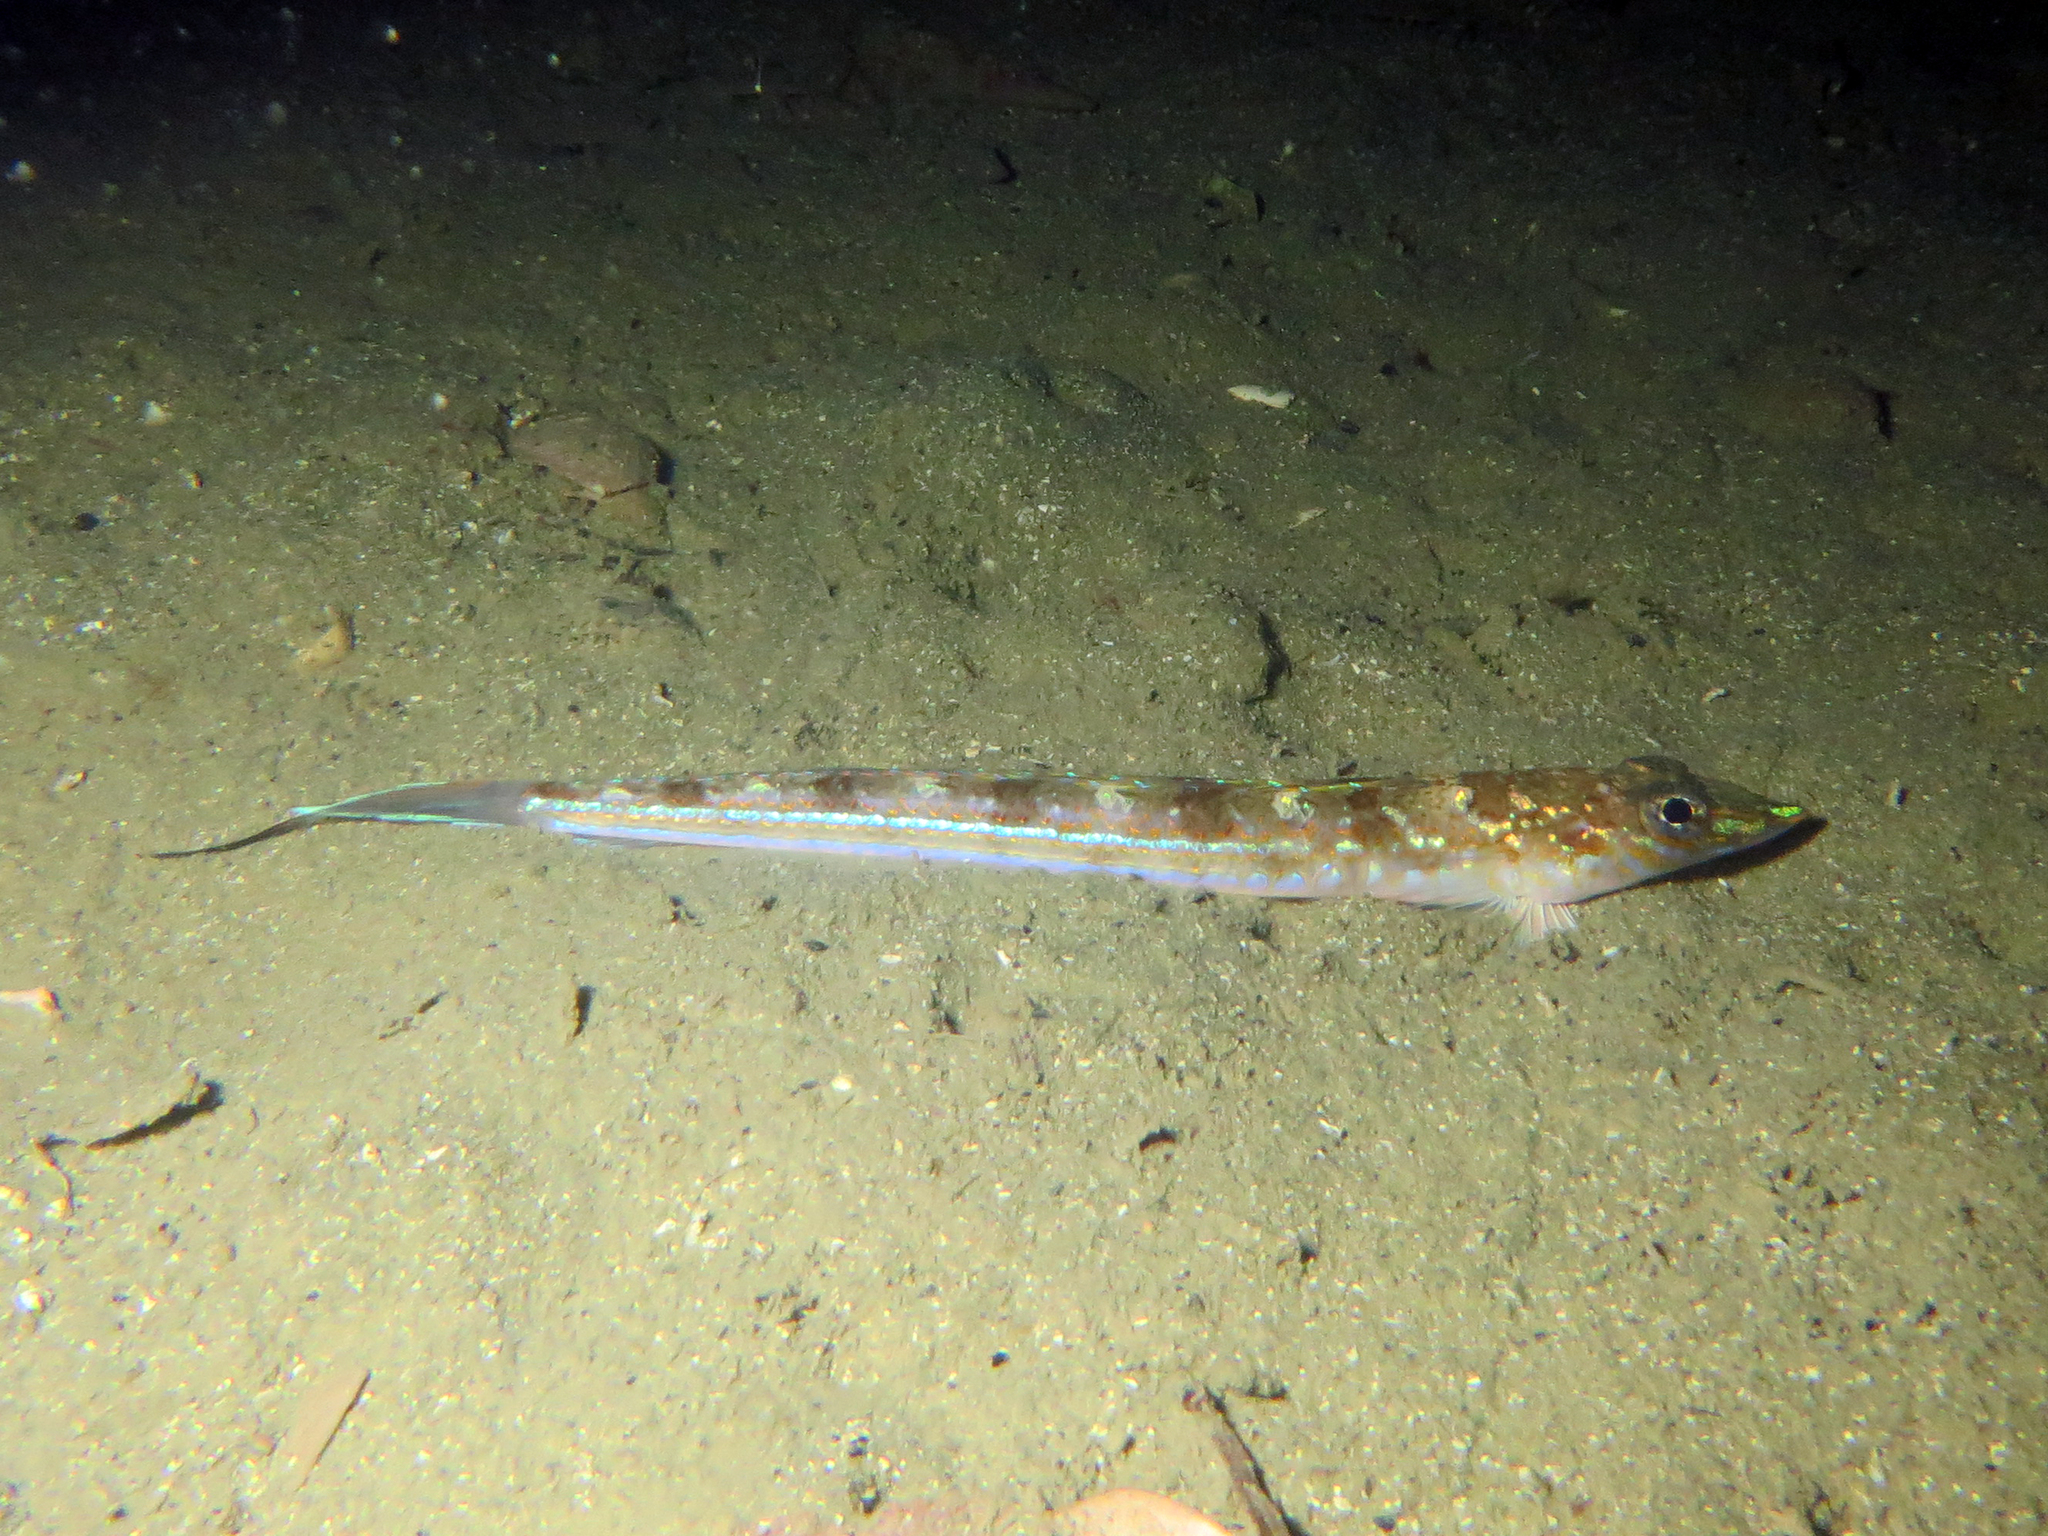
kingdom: Animalia
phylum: Chordata
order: Perciformes
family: Percophidae
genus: Hemerocoetes
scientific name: Hemerocoetes monopterygius
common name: Opalfish
